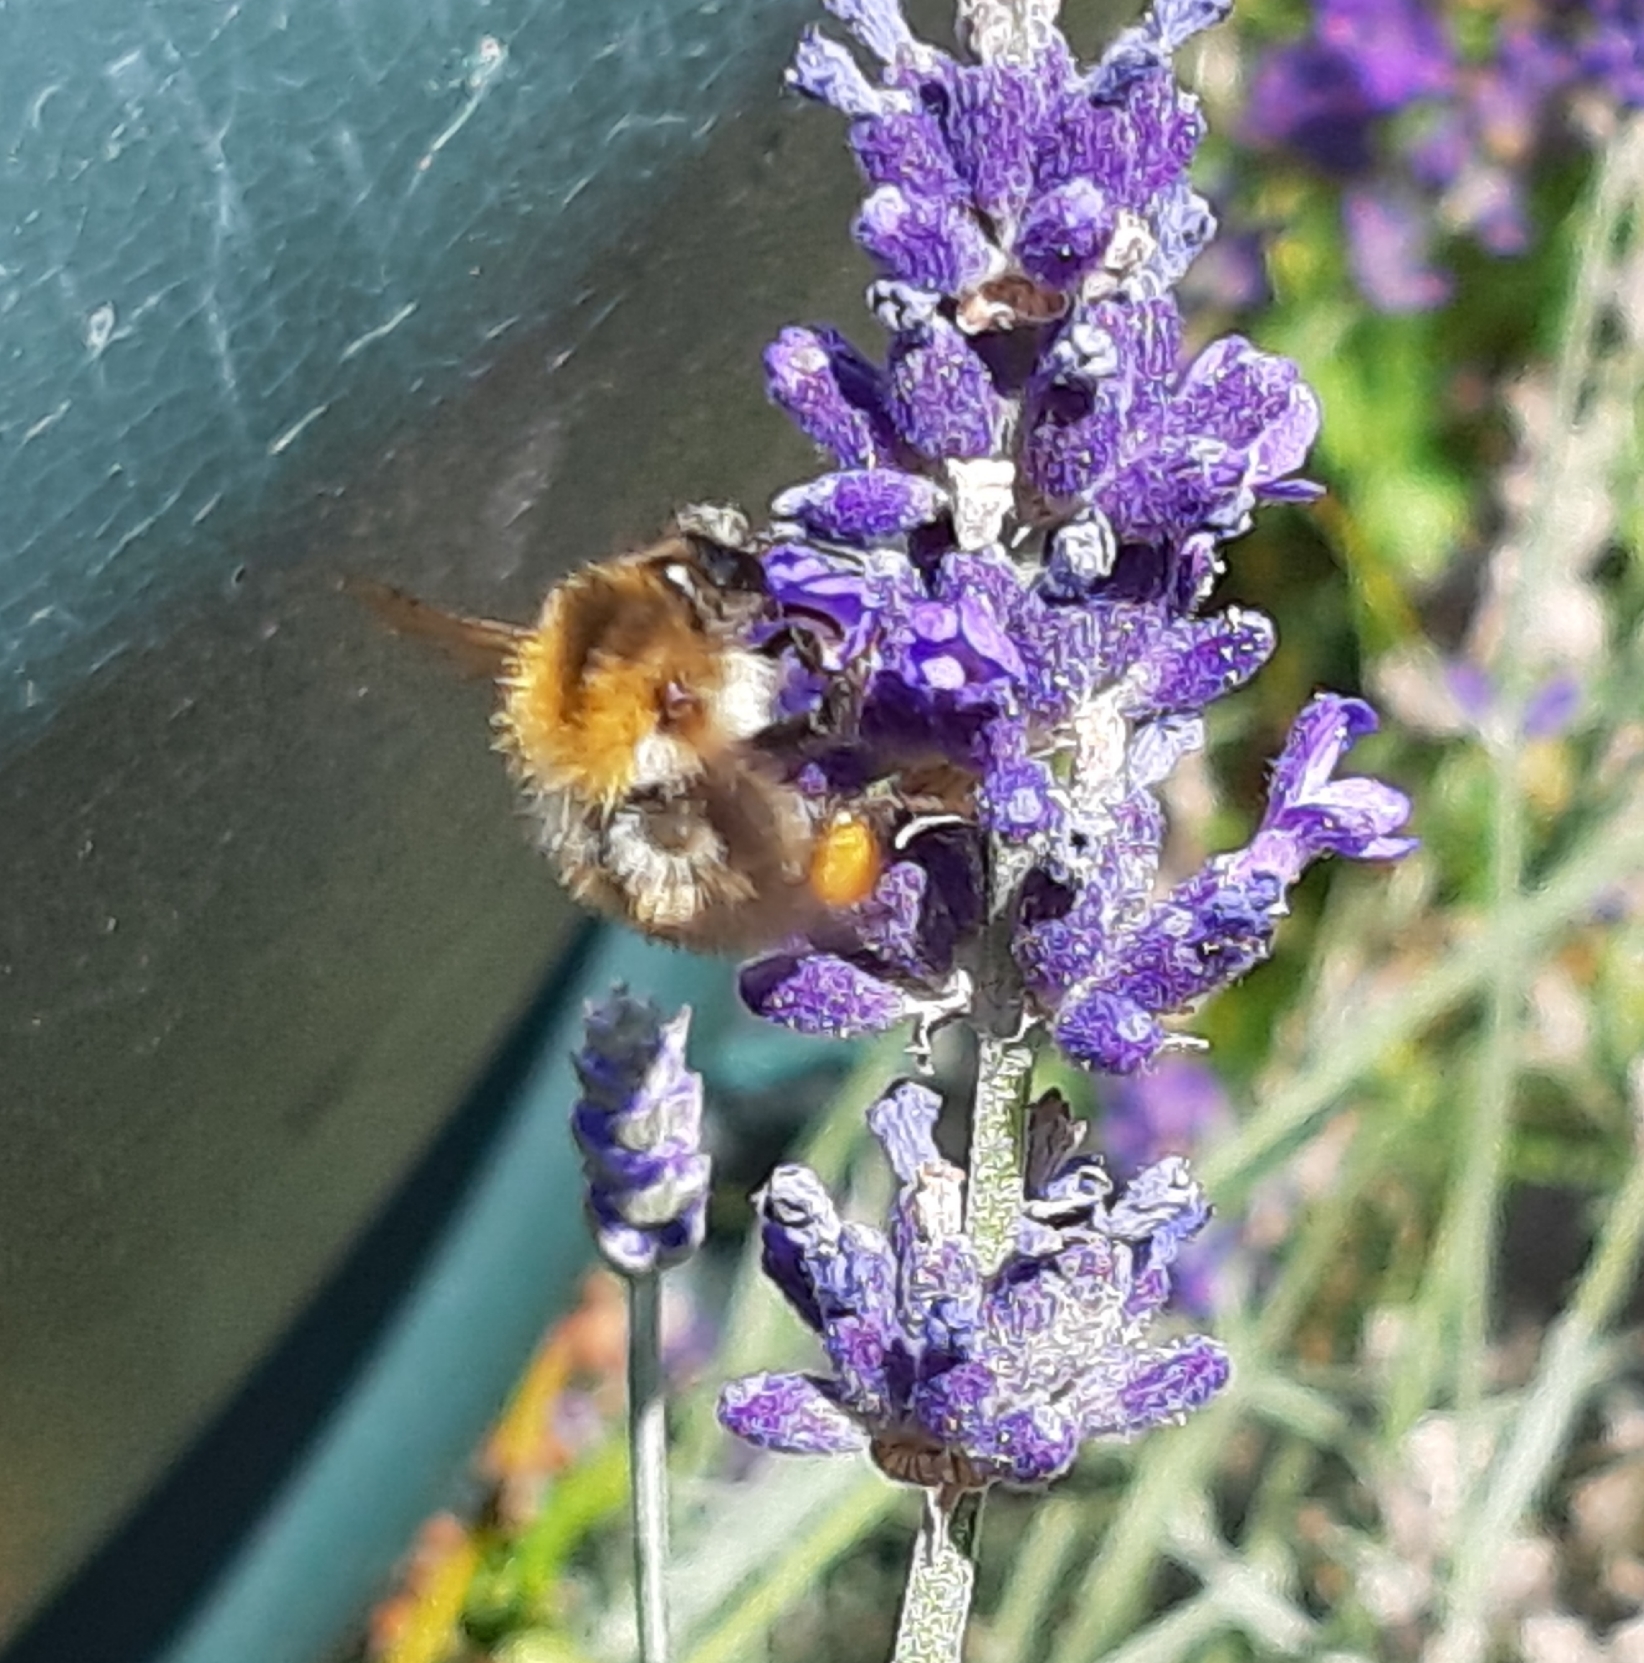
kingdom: Animalia
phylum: Arthropoda
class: Insecta
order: Hymenoptera
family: Apidae
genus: Bombus
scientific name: Bombus pascuorum
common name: Common carder bee
